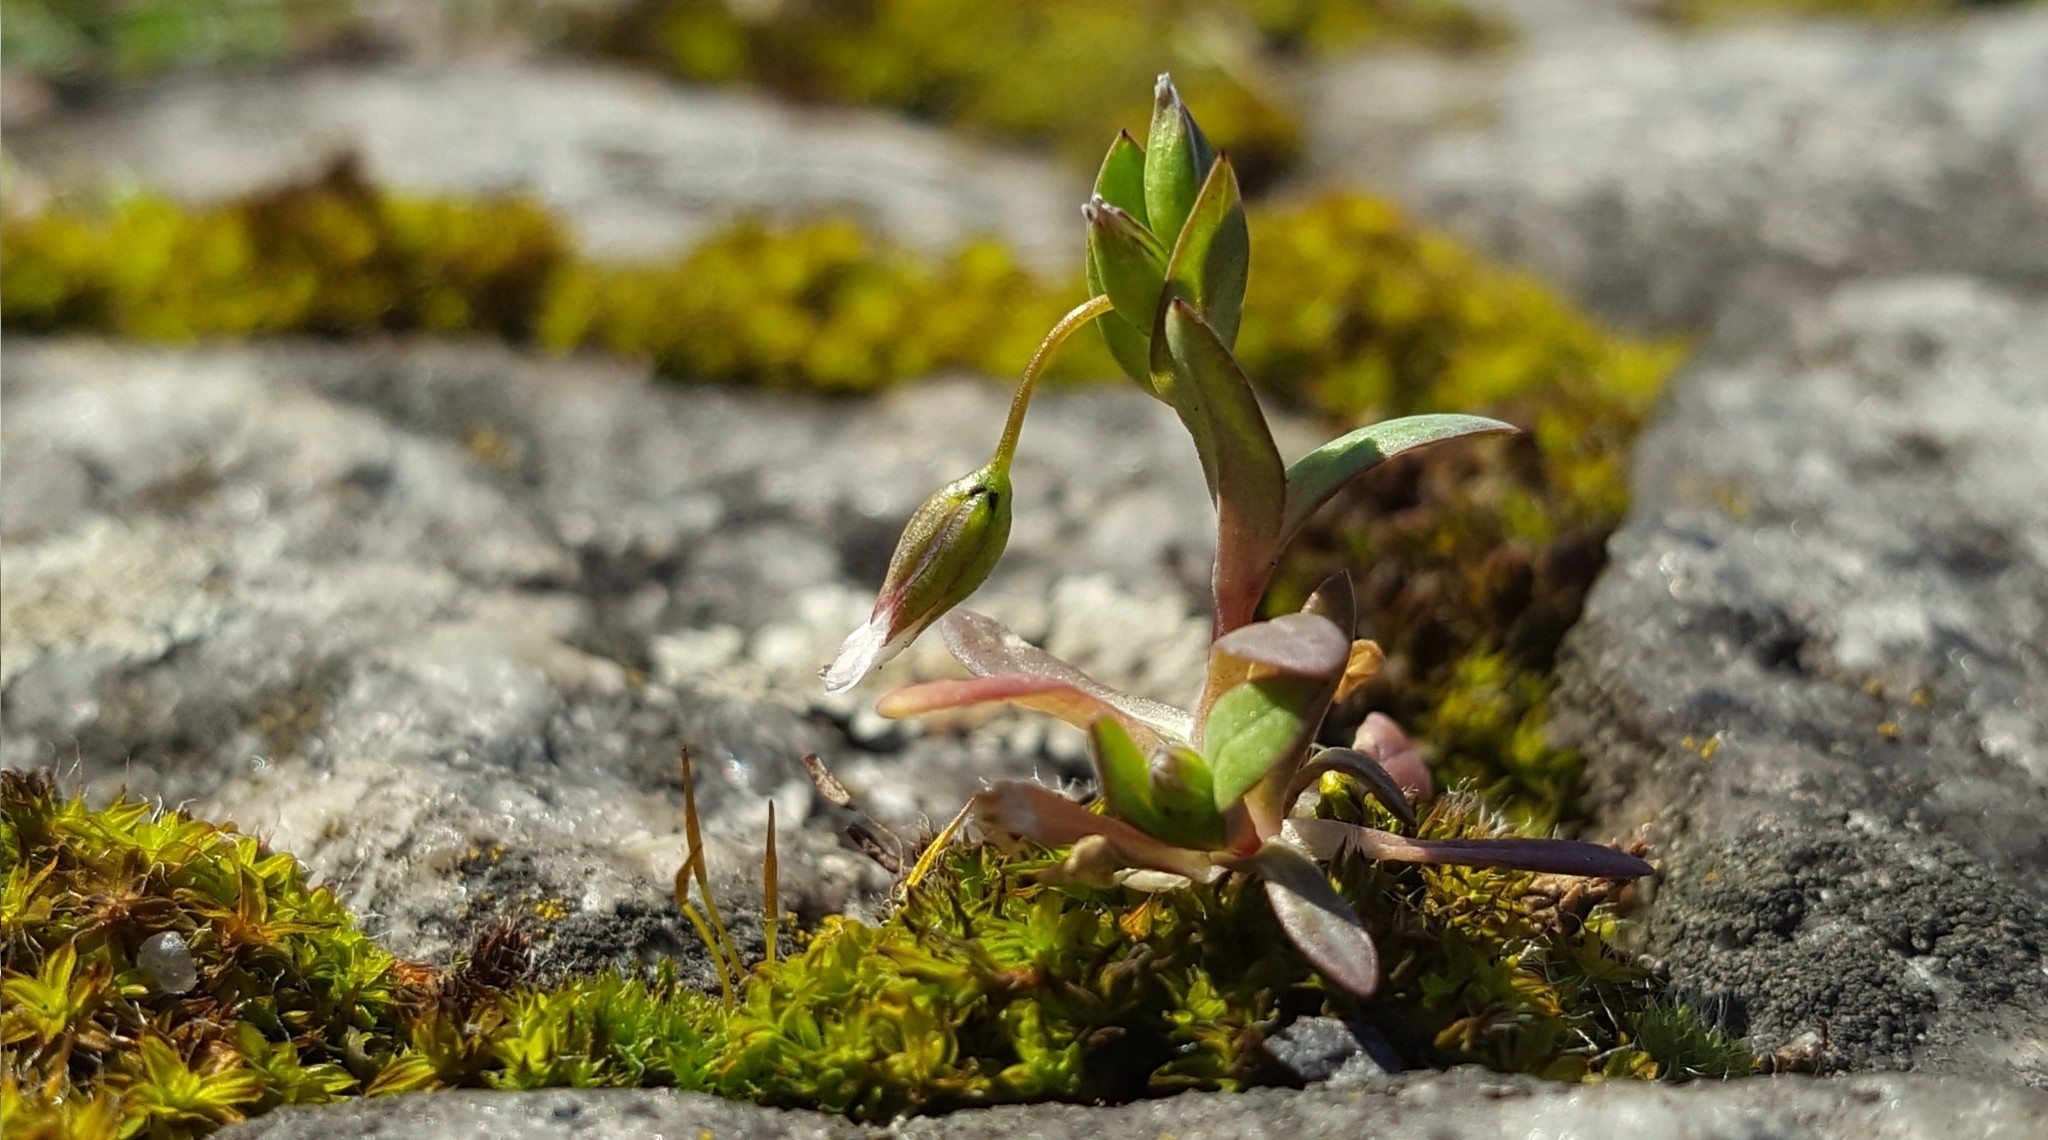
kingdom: Plantae
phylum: Tracheophyta
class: Magnoliopsida
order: Caryophyllales
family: Caryophyllaceae
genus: Holosteum
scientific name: Holosteum umbellatum
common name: Jagged chickweed
